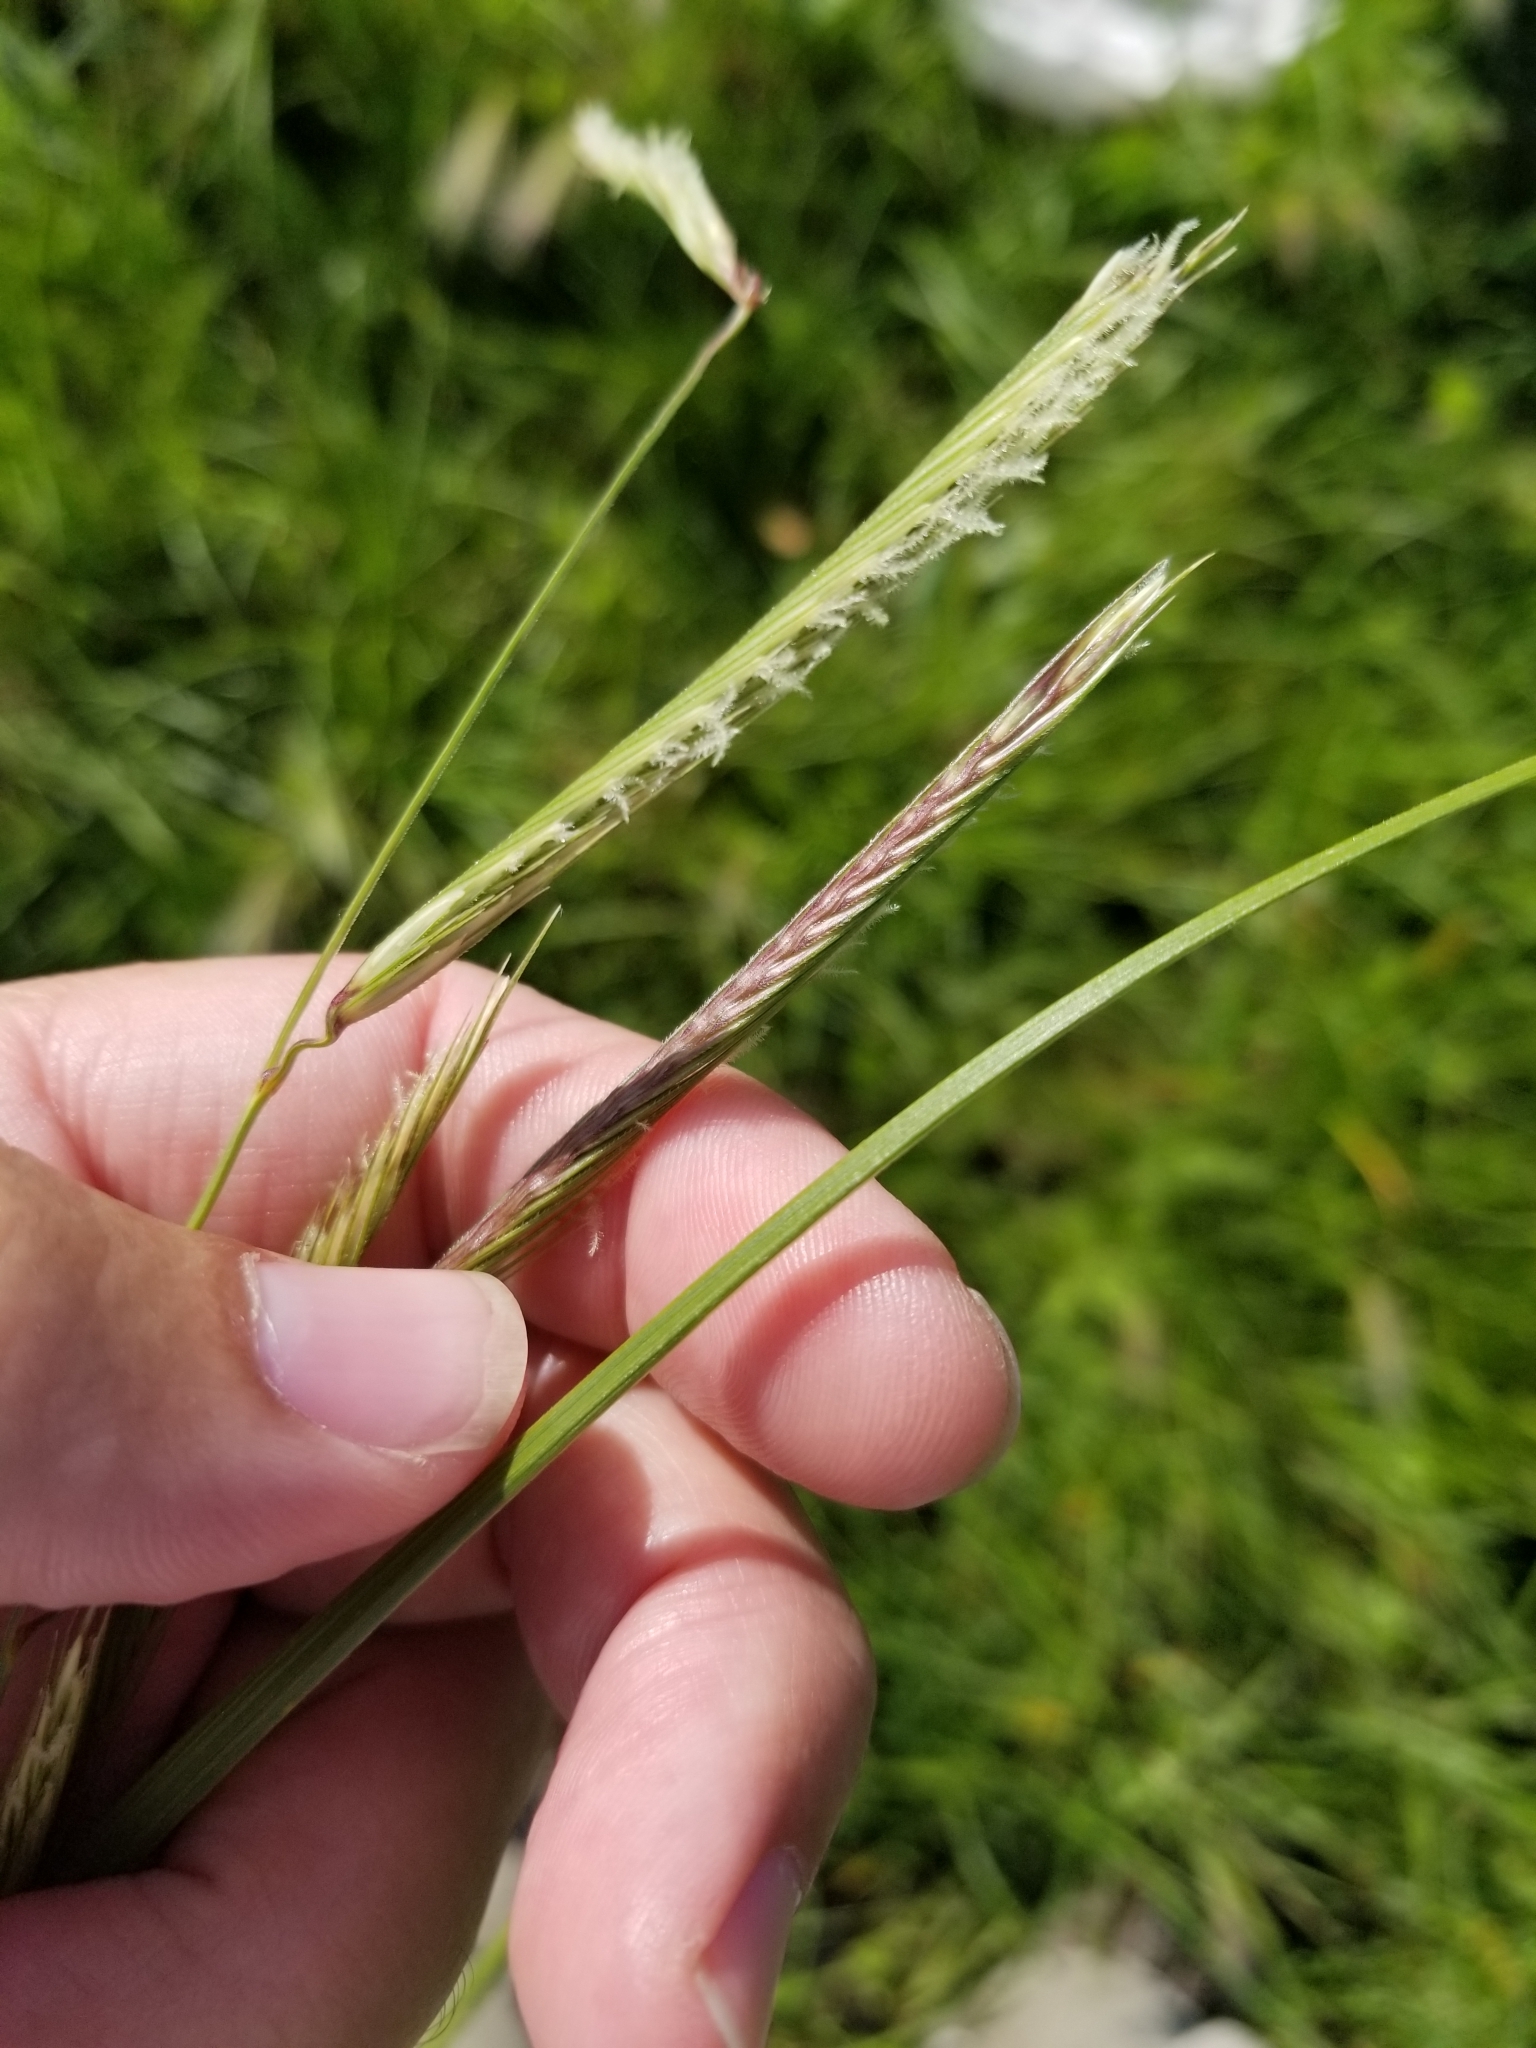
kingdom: Plantae
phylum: Tracheophyta
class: Liliopsida
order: Poales
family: Poaceae
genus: Sporobolus
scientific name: Sporobolus michauxianus
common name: Freshwater cordgrass
